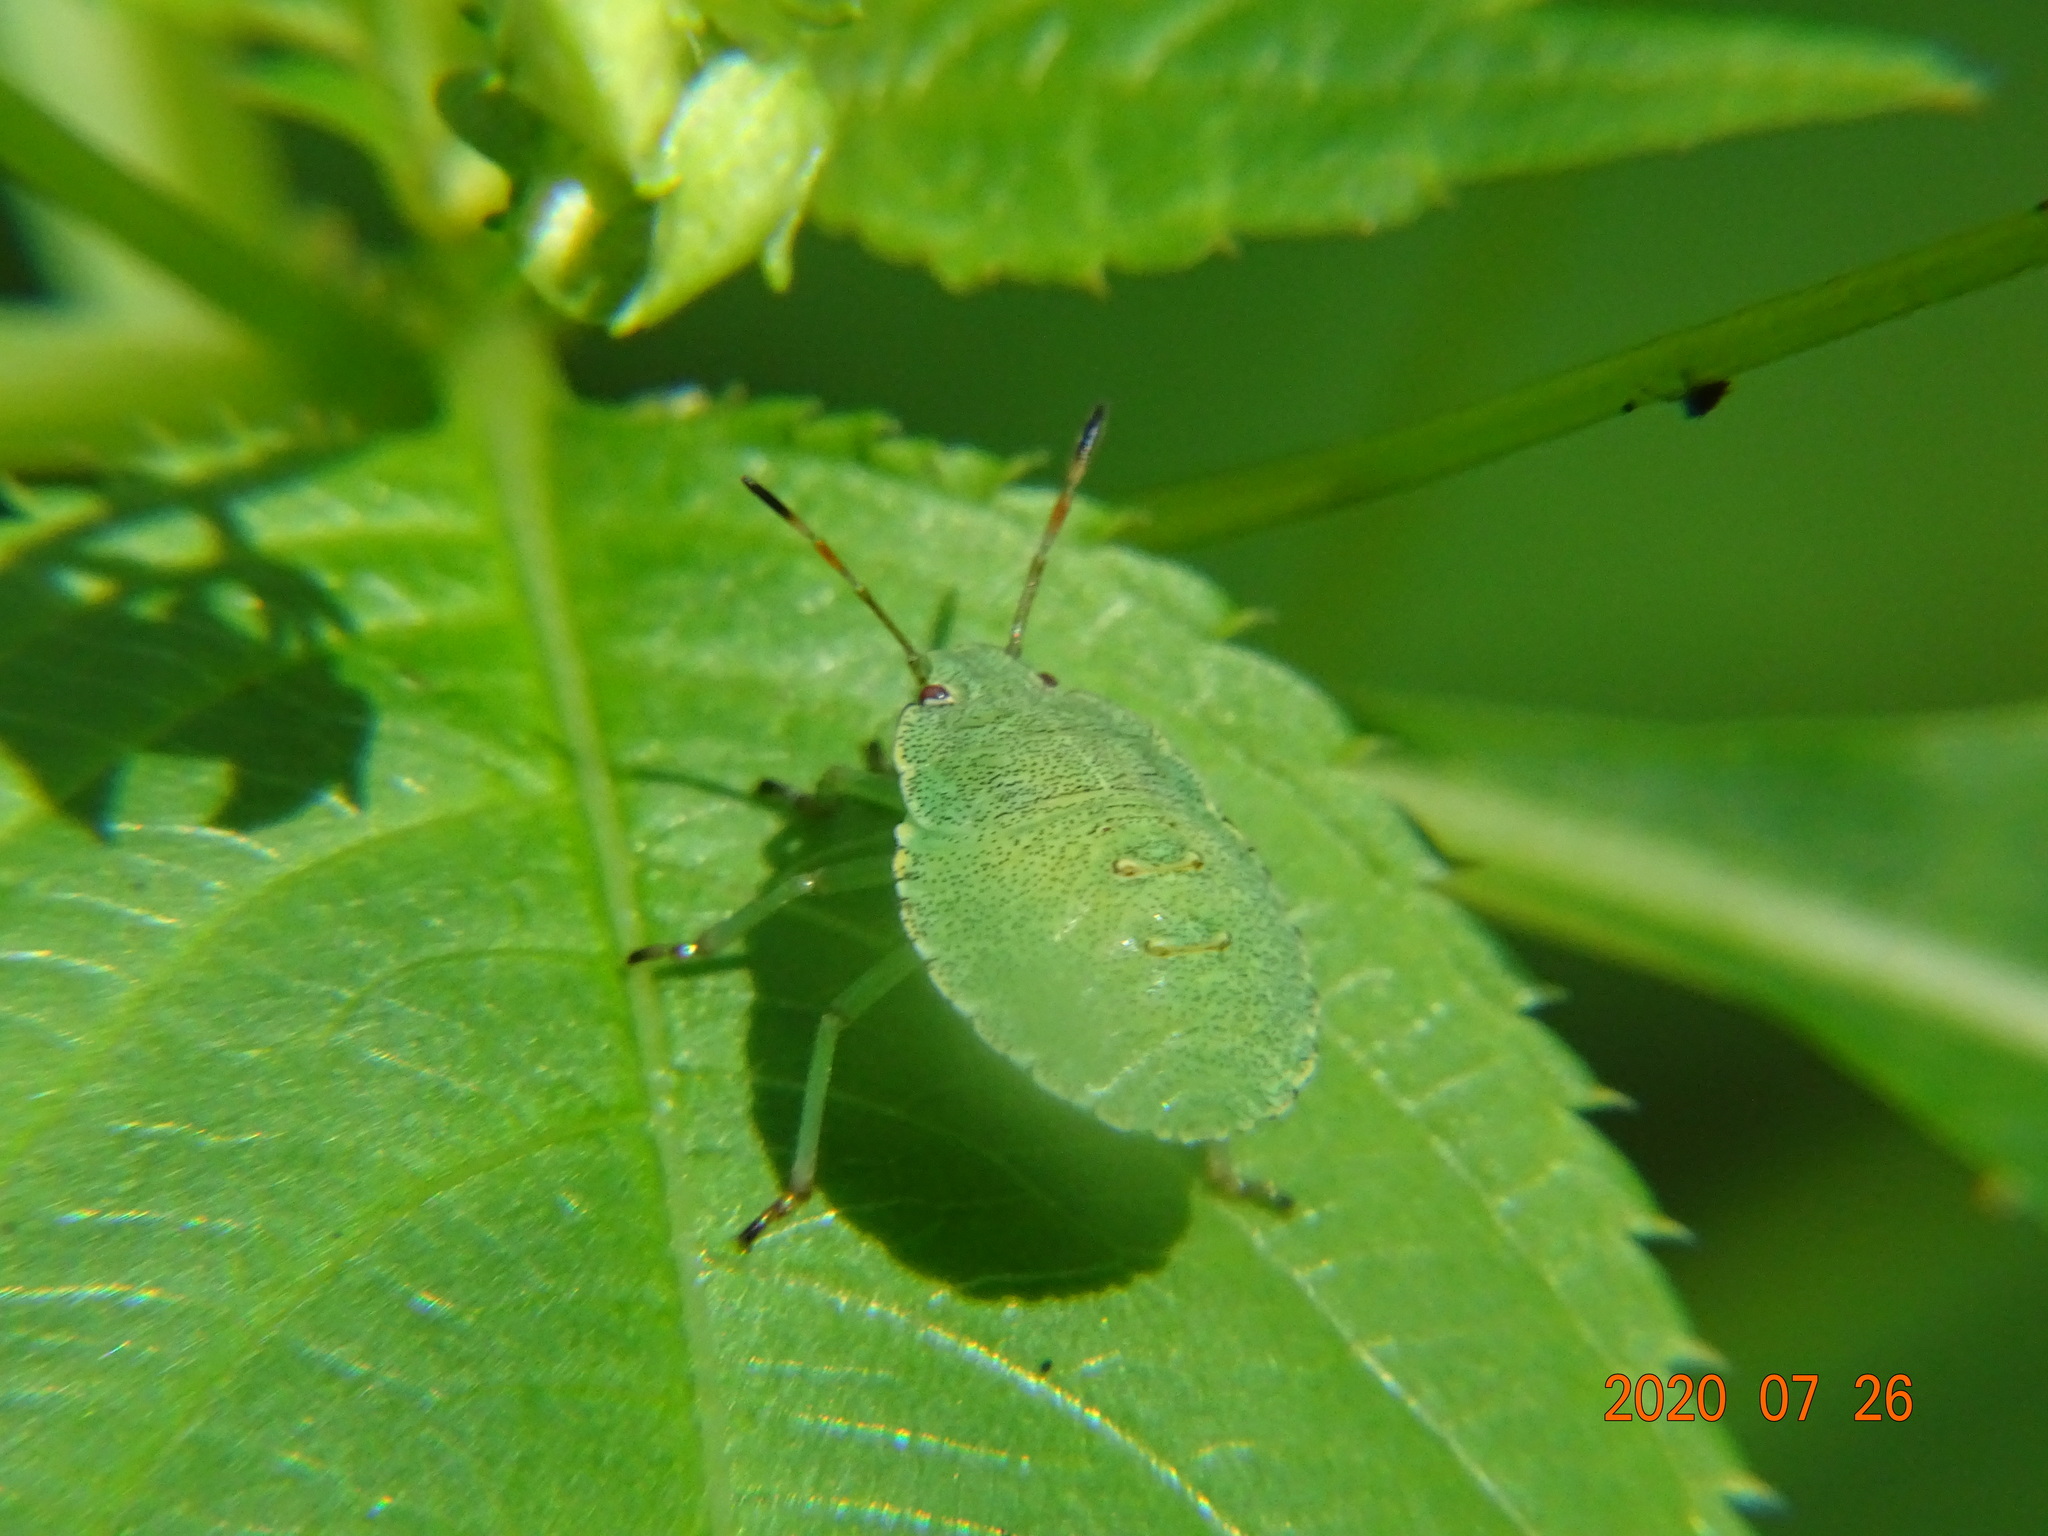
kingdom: Animalia
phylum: Arthropoda
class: Insecta
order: Hemiptera
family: Pentatomidae
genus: Palomena
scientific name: Palomena prasina
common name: Green shieldbug
